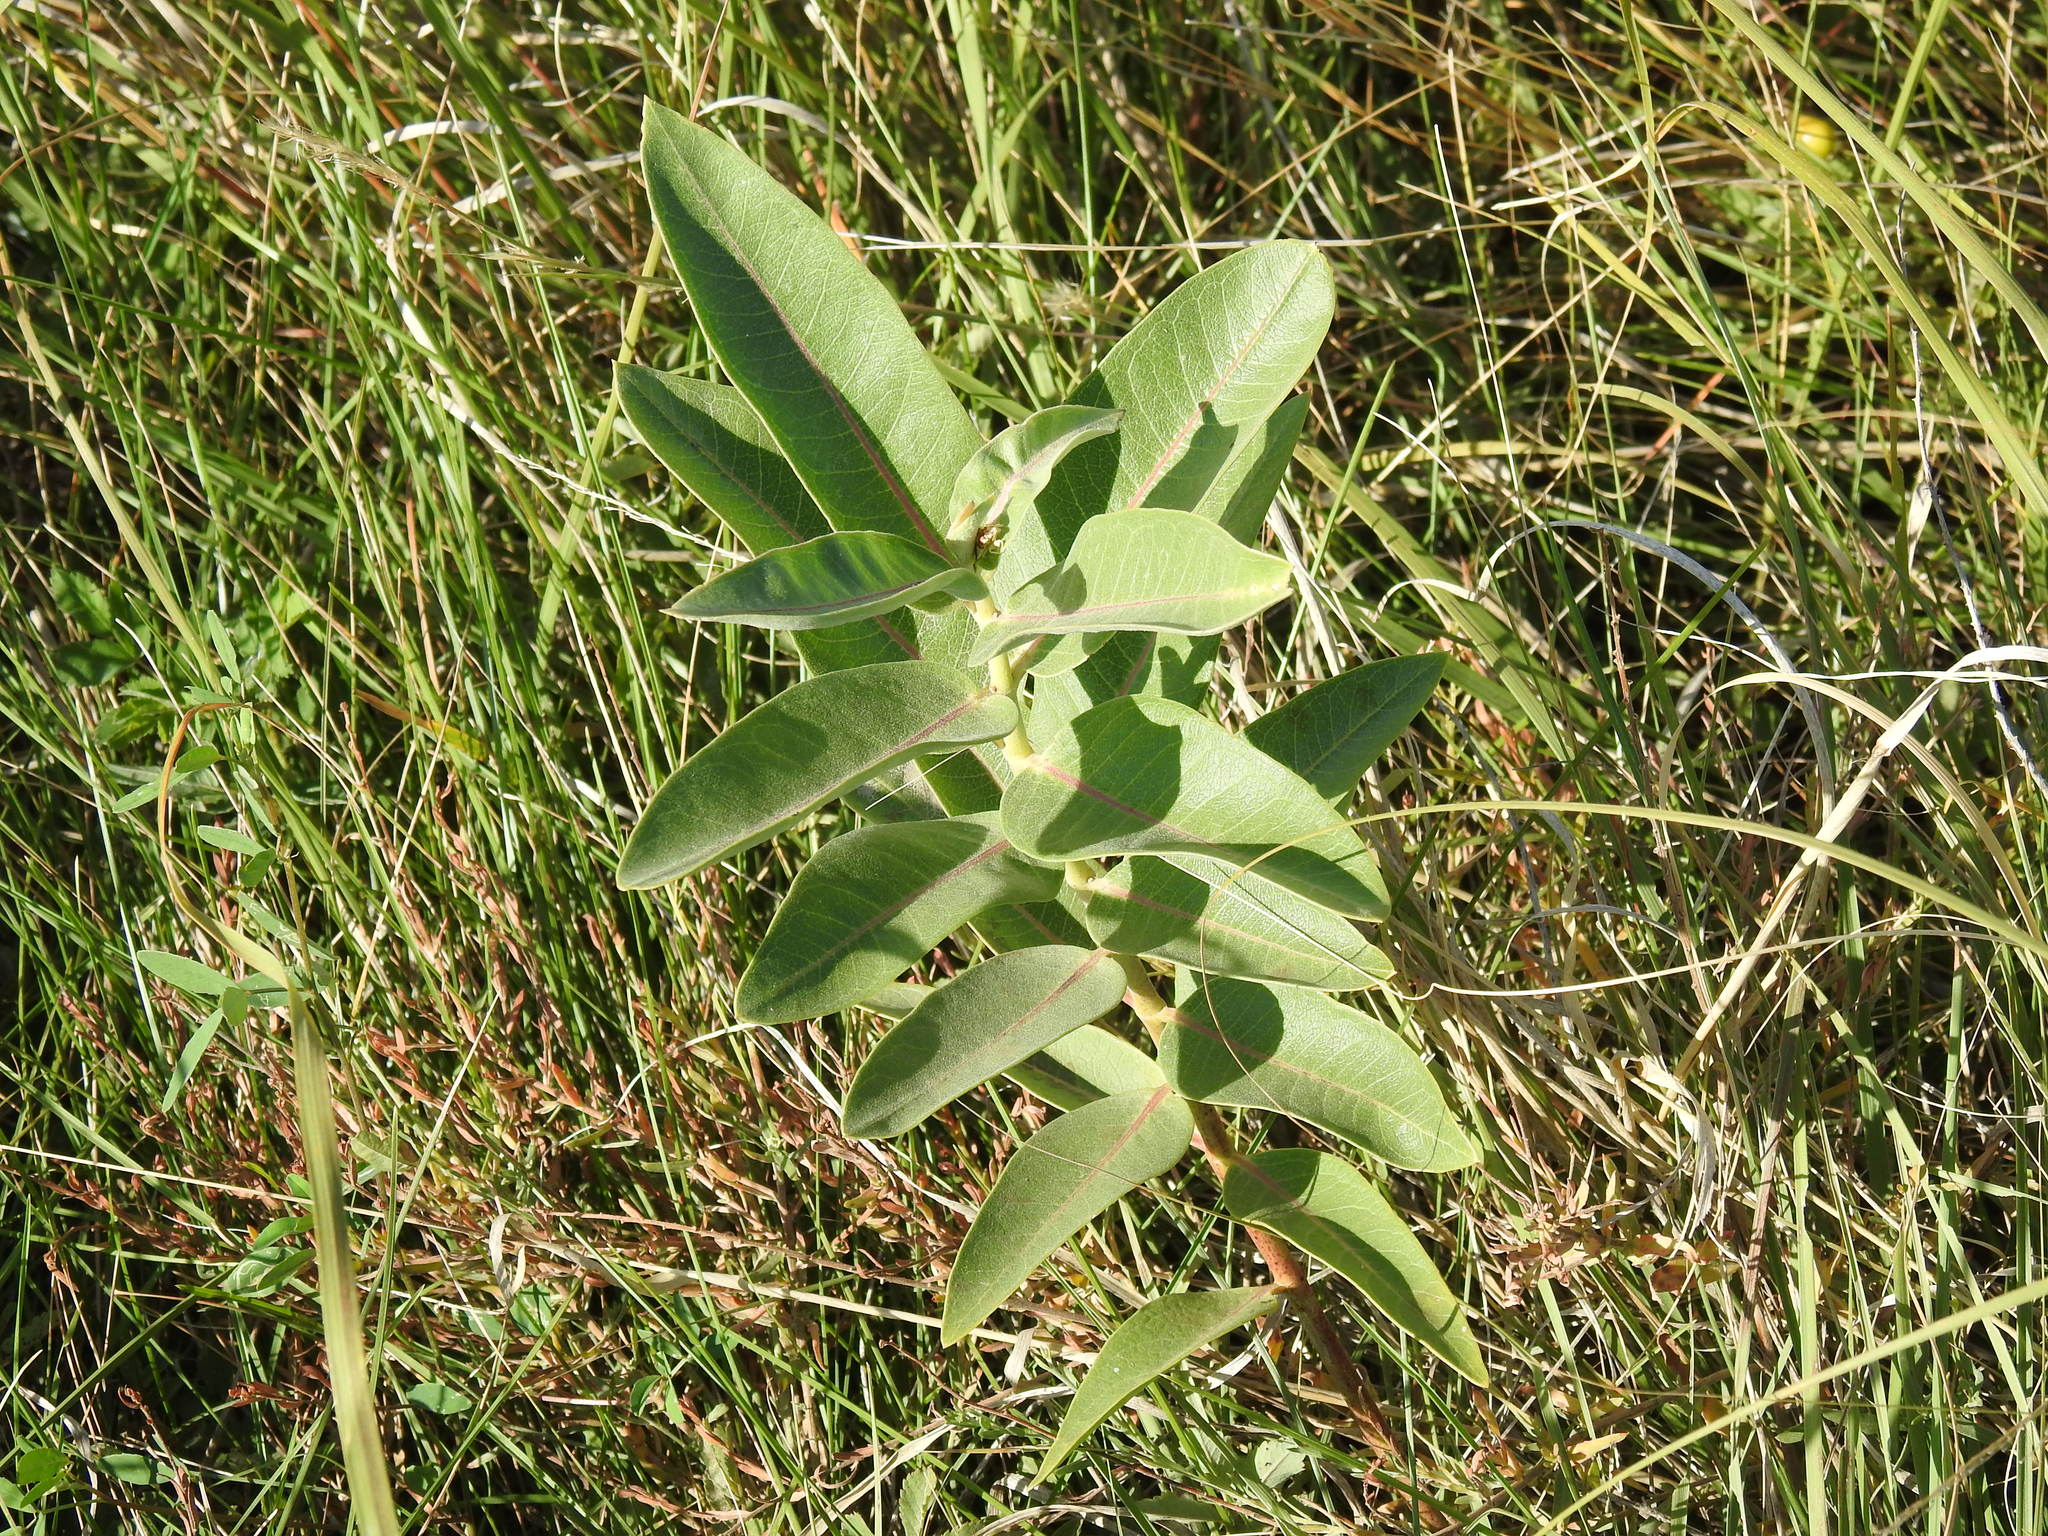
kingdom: Plantae
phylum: Tracheophyta
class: Magnoliopsida
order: Gentianales
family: Apocynaceae
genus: Asclepias
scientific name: Asclepias speciosa
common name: Showy milkweed
